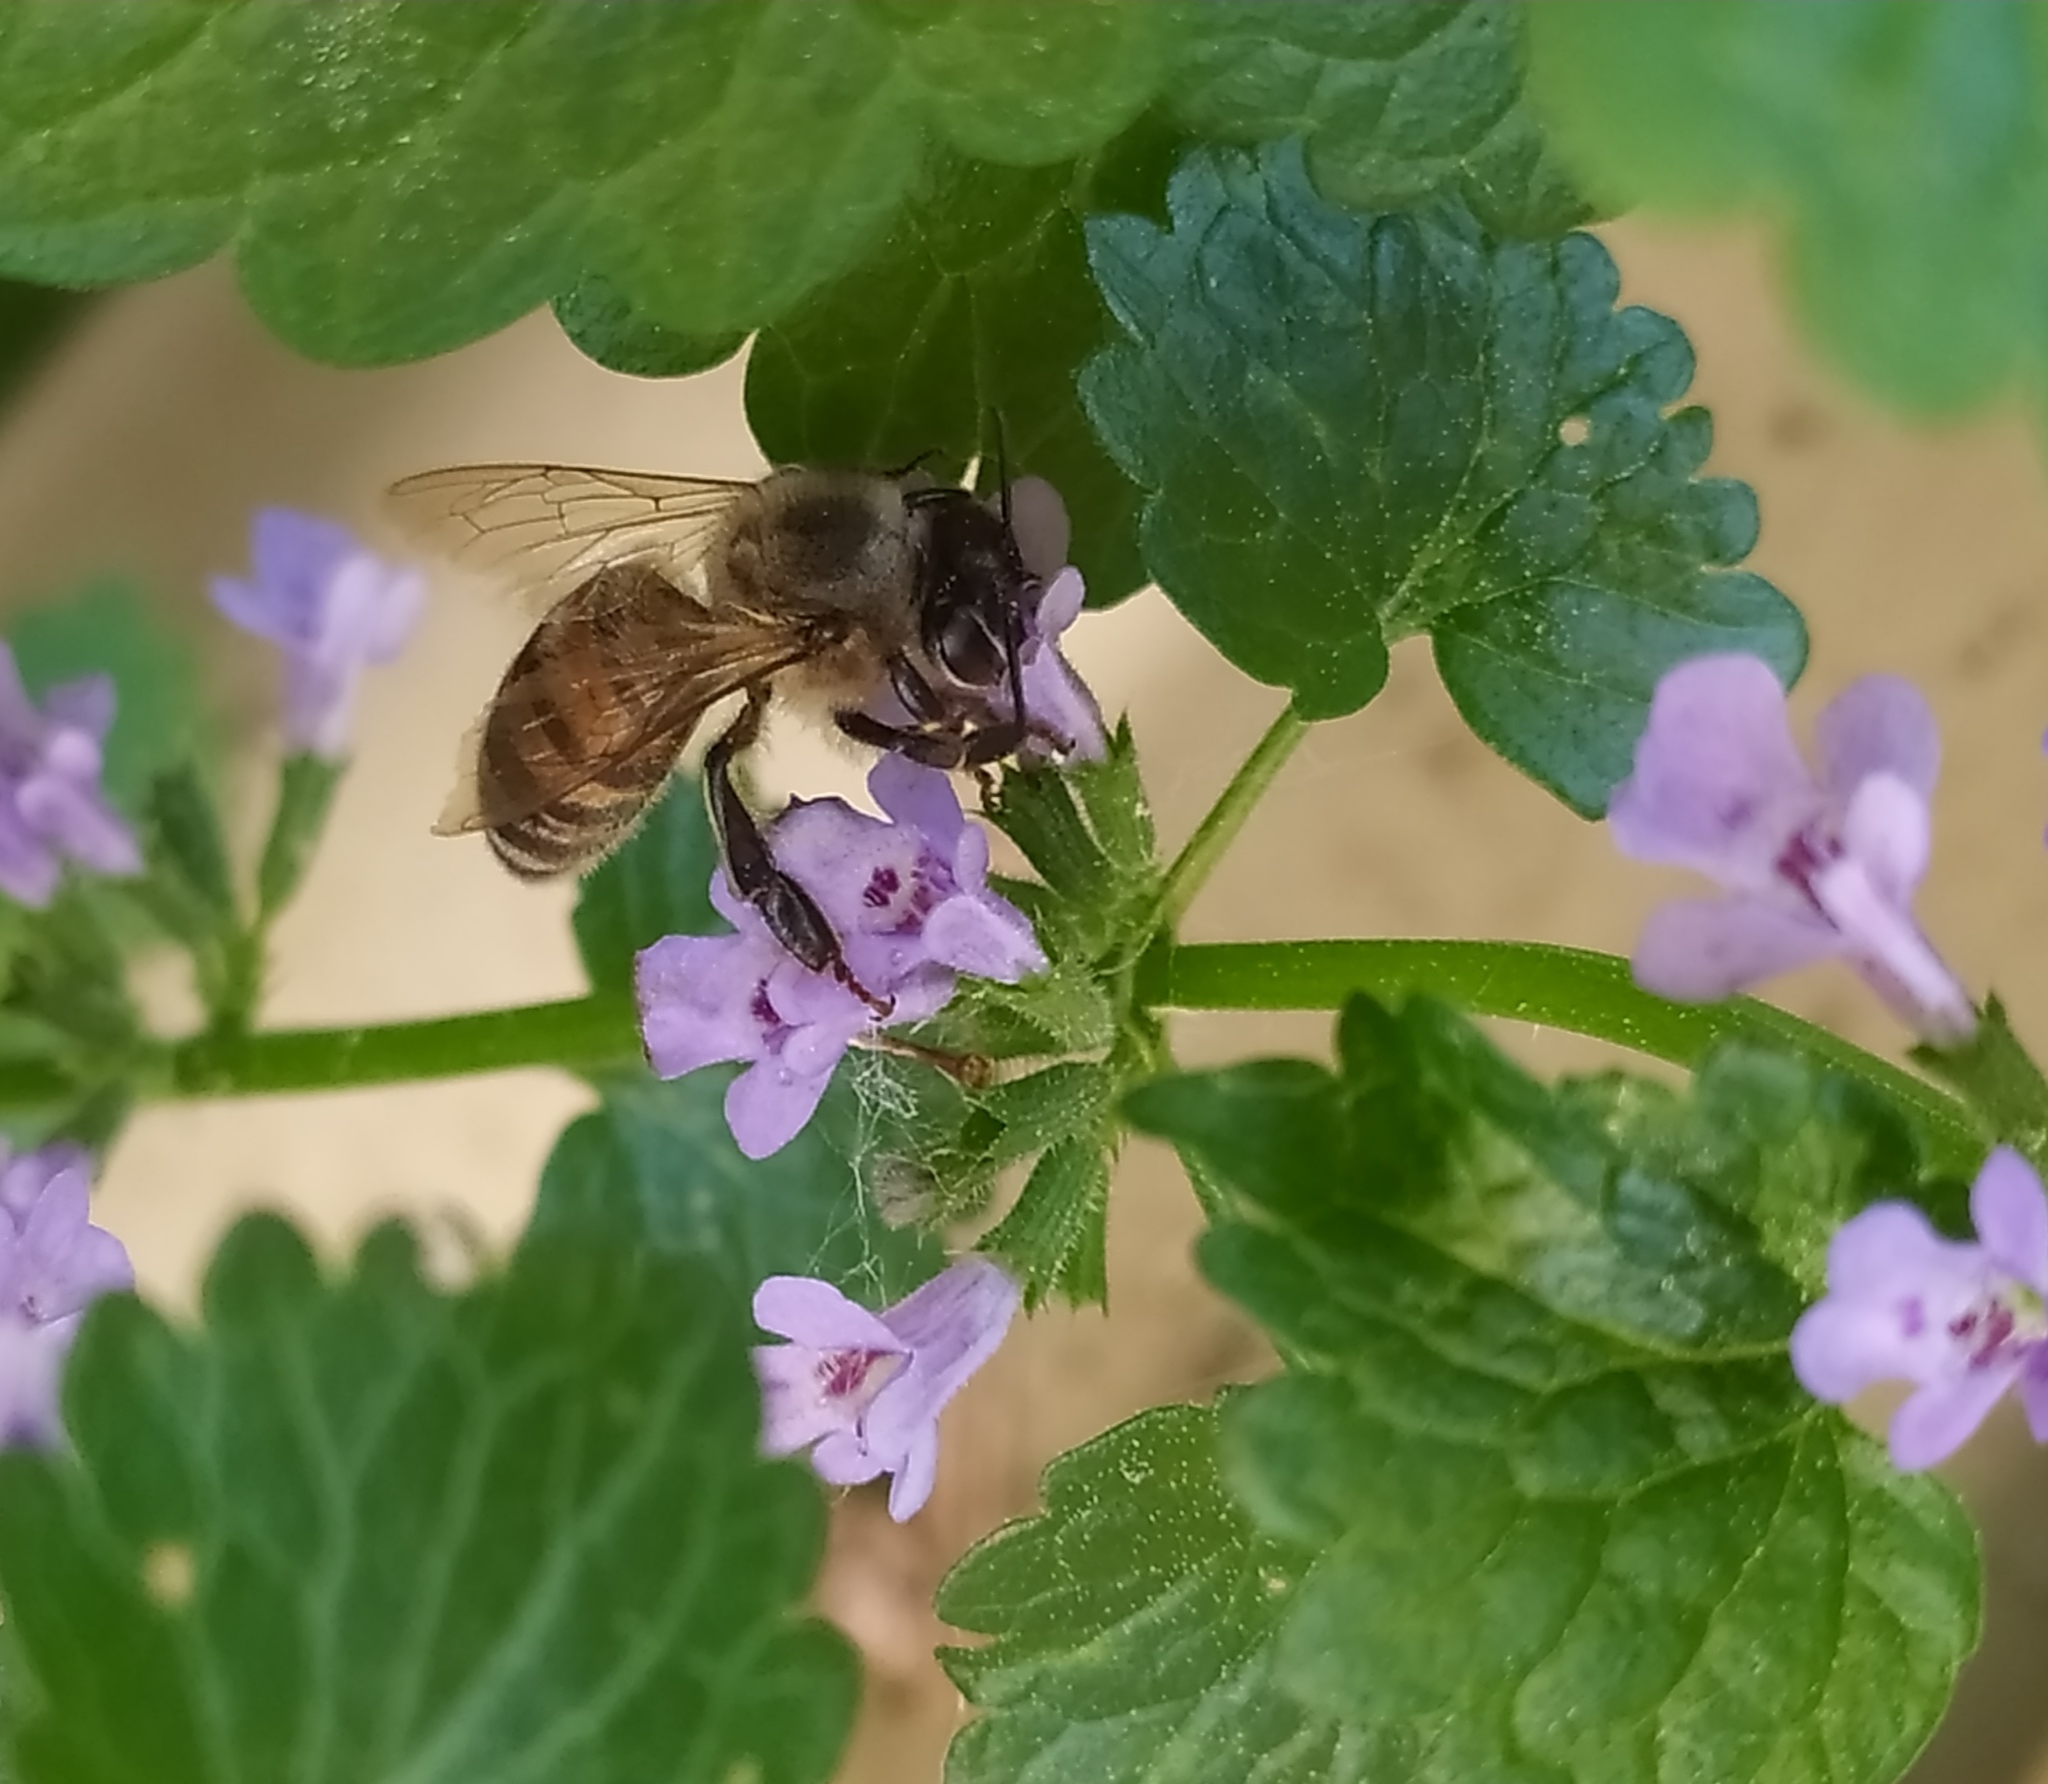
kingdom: Animalia
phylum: Arthropoda
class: Insecta
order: Hymenoptera
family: Apidae
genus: Apis
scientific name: Apis mellifera
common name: Honey bee
